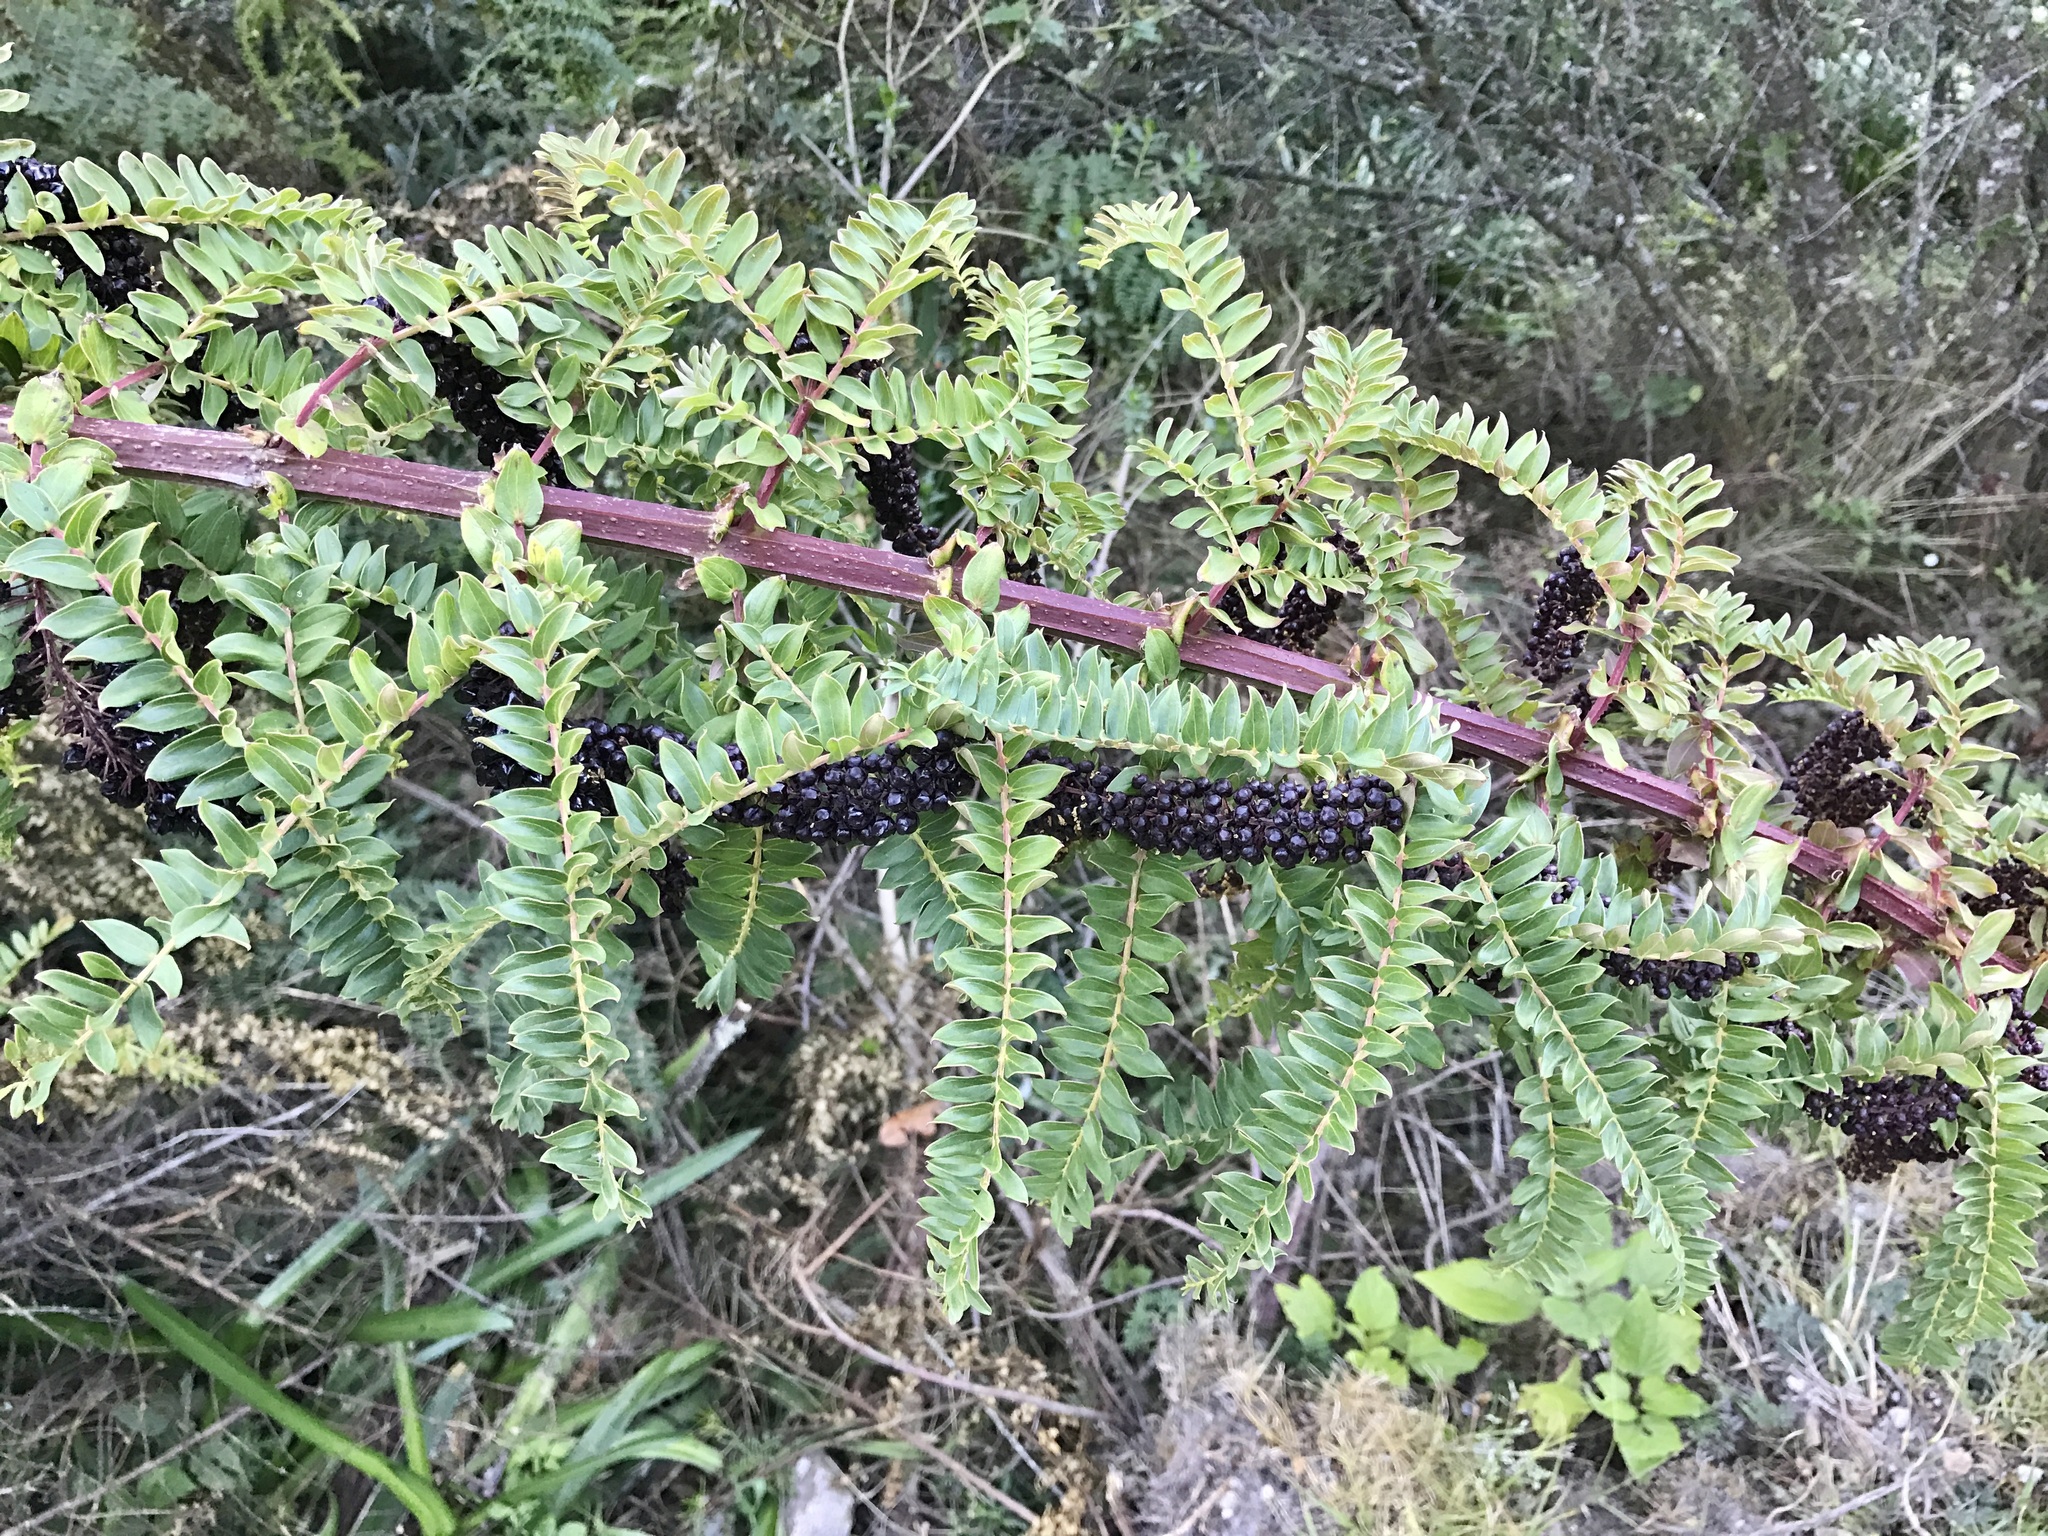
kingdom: Plantae
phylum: Tracheophyta
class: Magnoliopsida
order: Cucurbitales
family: Coriariaceae
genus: Coriaria
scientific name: Coriaria ruscifolia
